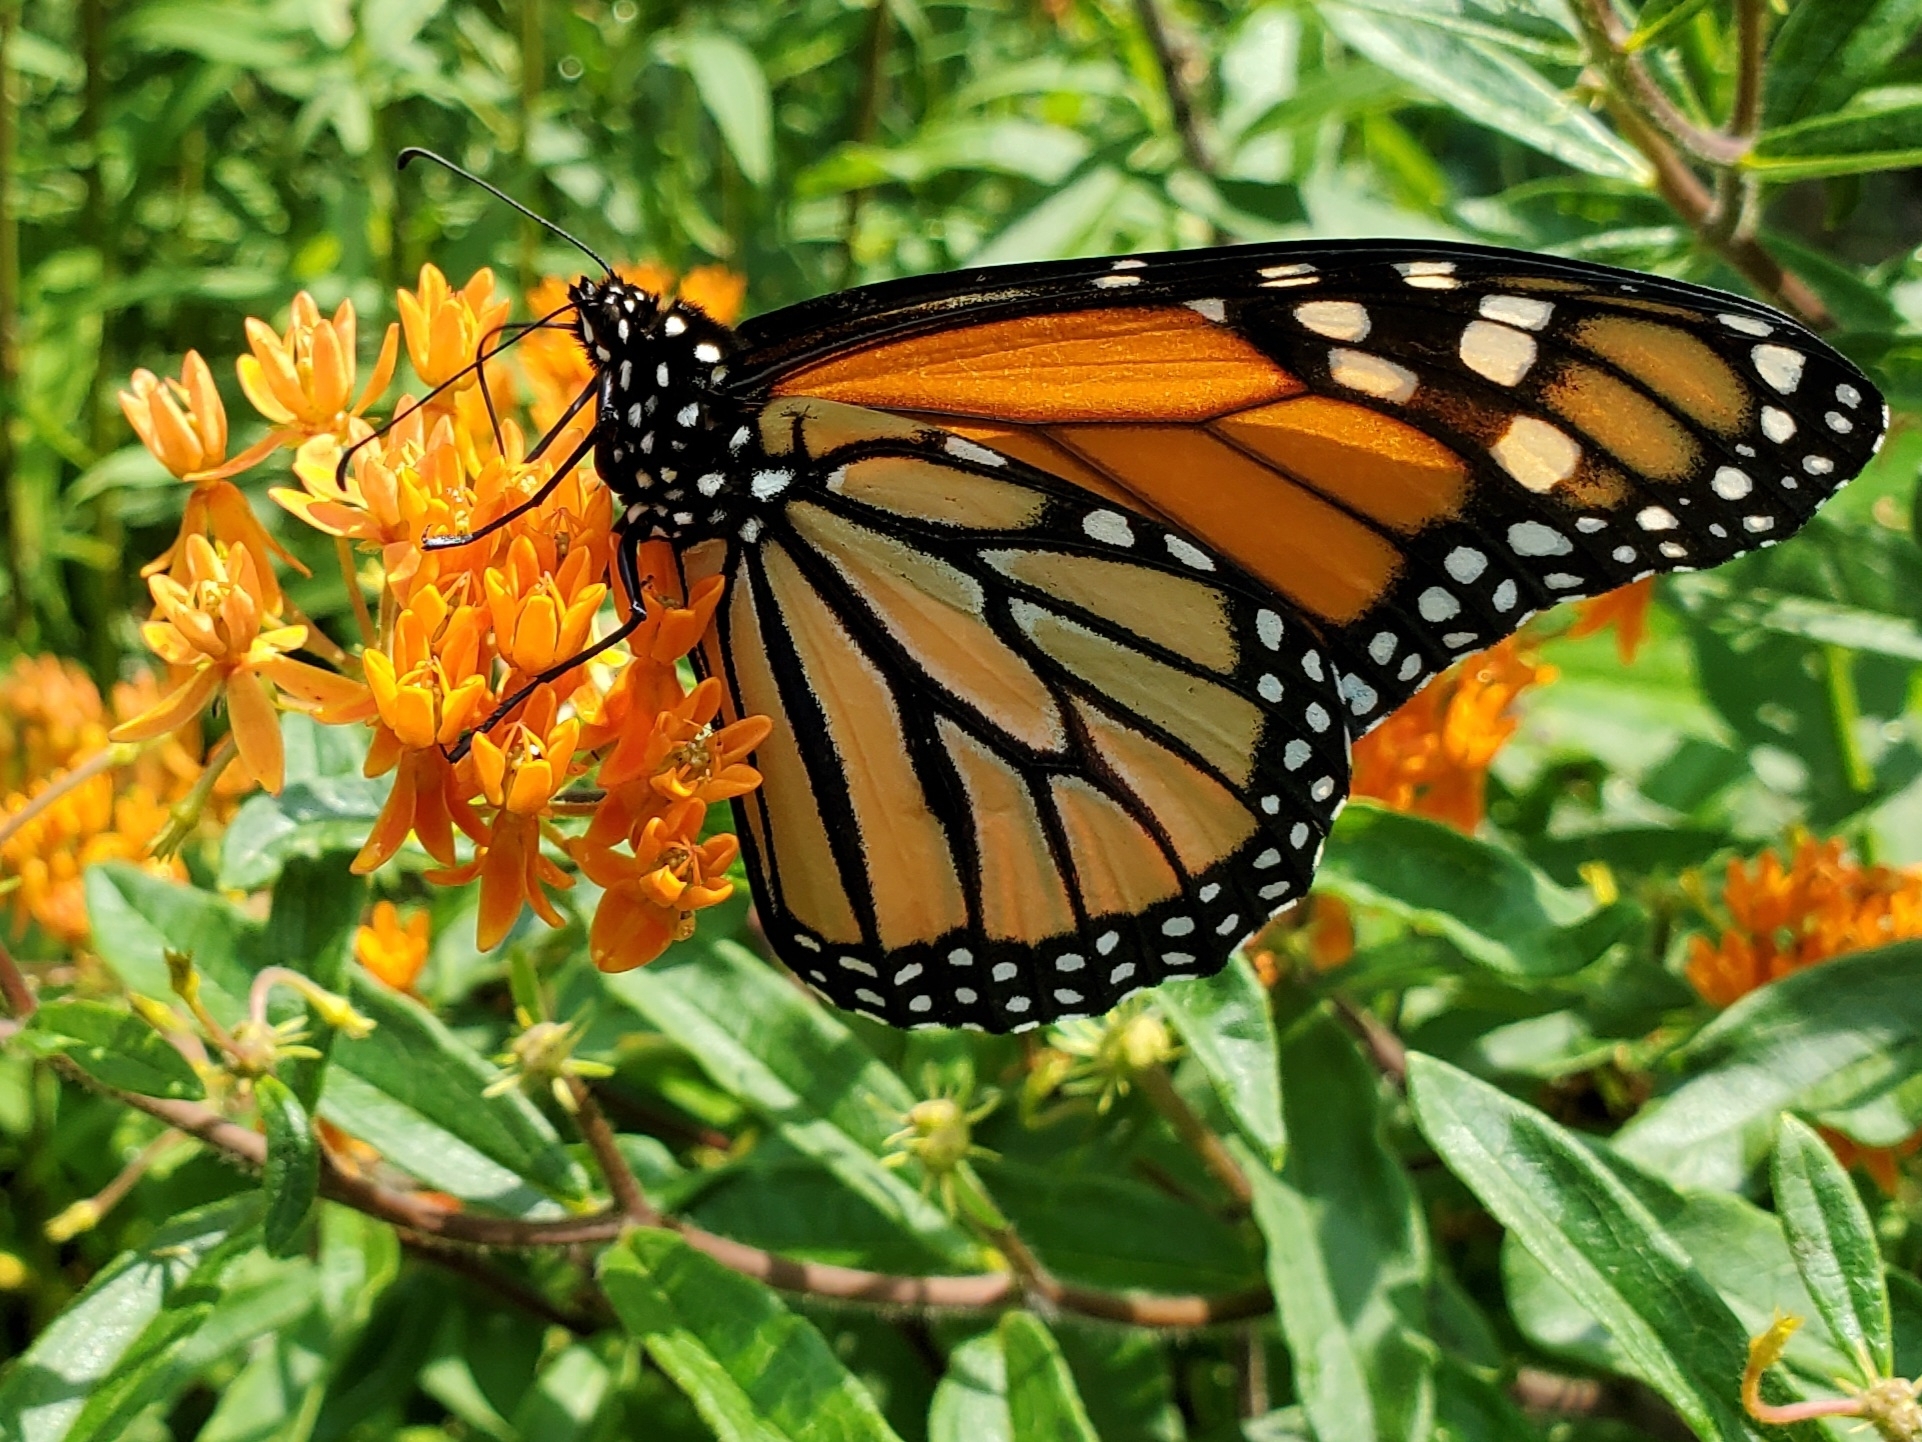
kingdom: Animalia
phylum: Arthropoda
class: Insecta
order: Lepidoptera
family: Nymphalidae
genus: Danaus
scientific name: Danaus plexippus
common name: Monarch
